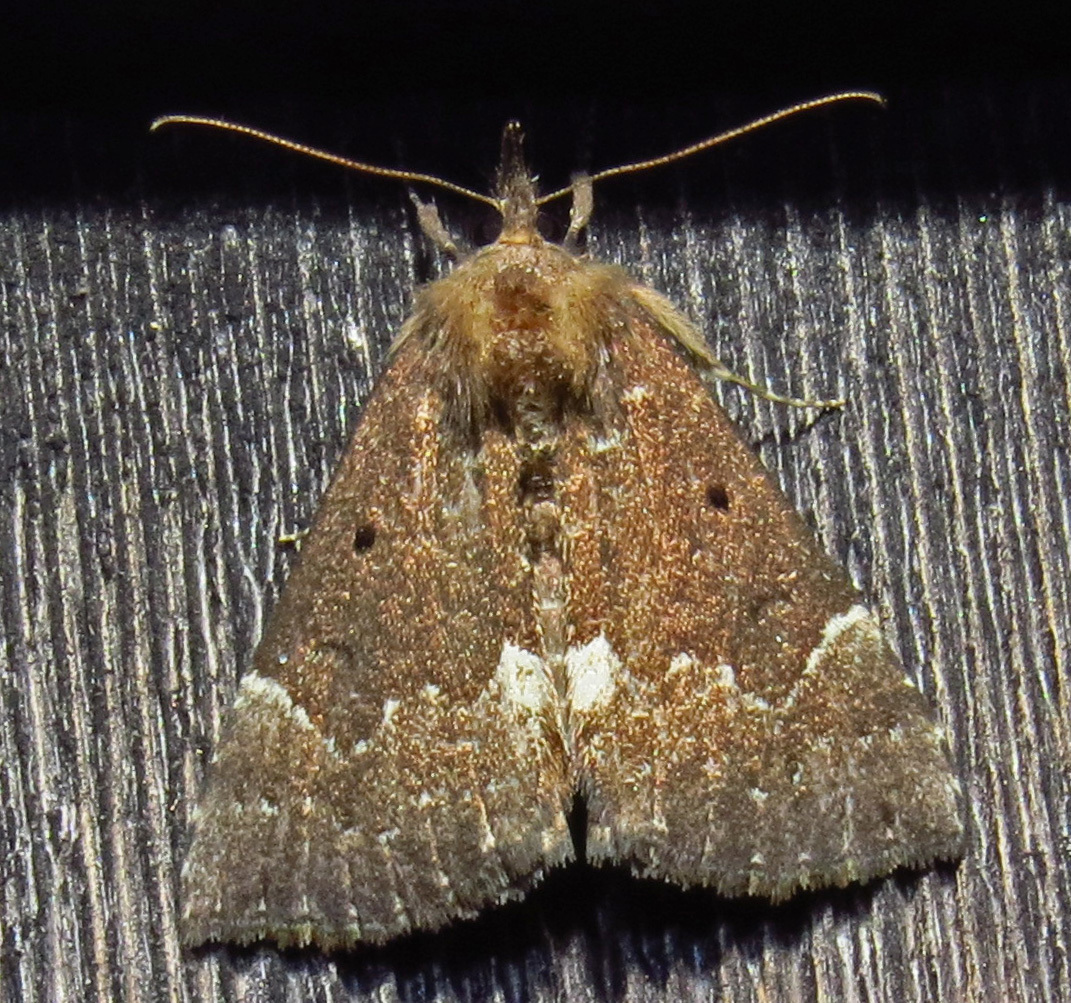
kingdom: Animalia
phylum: Arthropoda
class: Insecta
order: Lepidoptera
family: Erebidae
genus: Hypena
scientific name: Hypena bijugalis
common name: Dimorphic bomolocha moth
